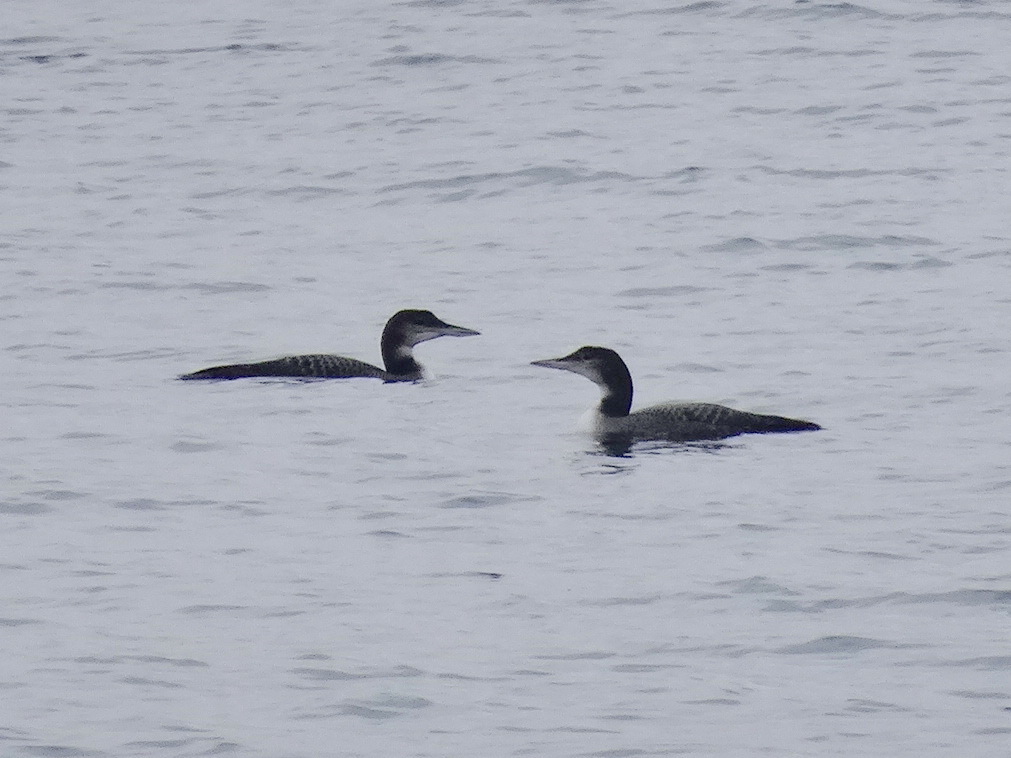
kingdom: Animalia
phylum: Chordata
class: Aves
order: Gaviiformes
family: Gaviidae
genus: Gavia
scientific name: Gavia immer
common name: Common loon
